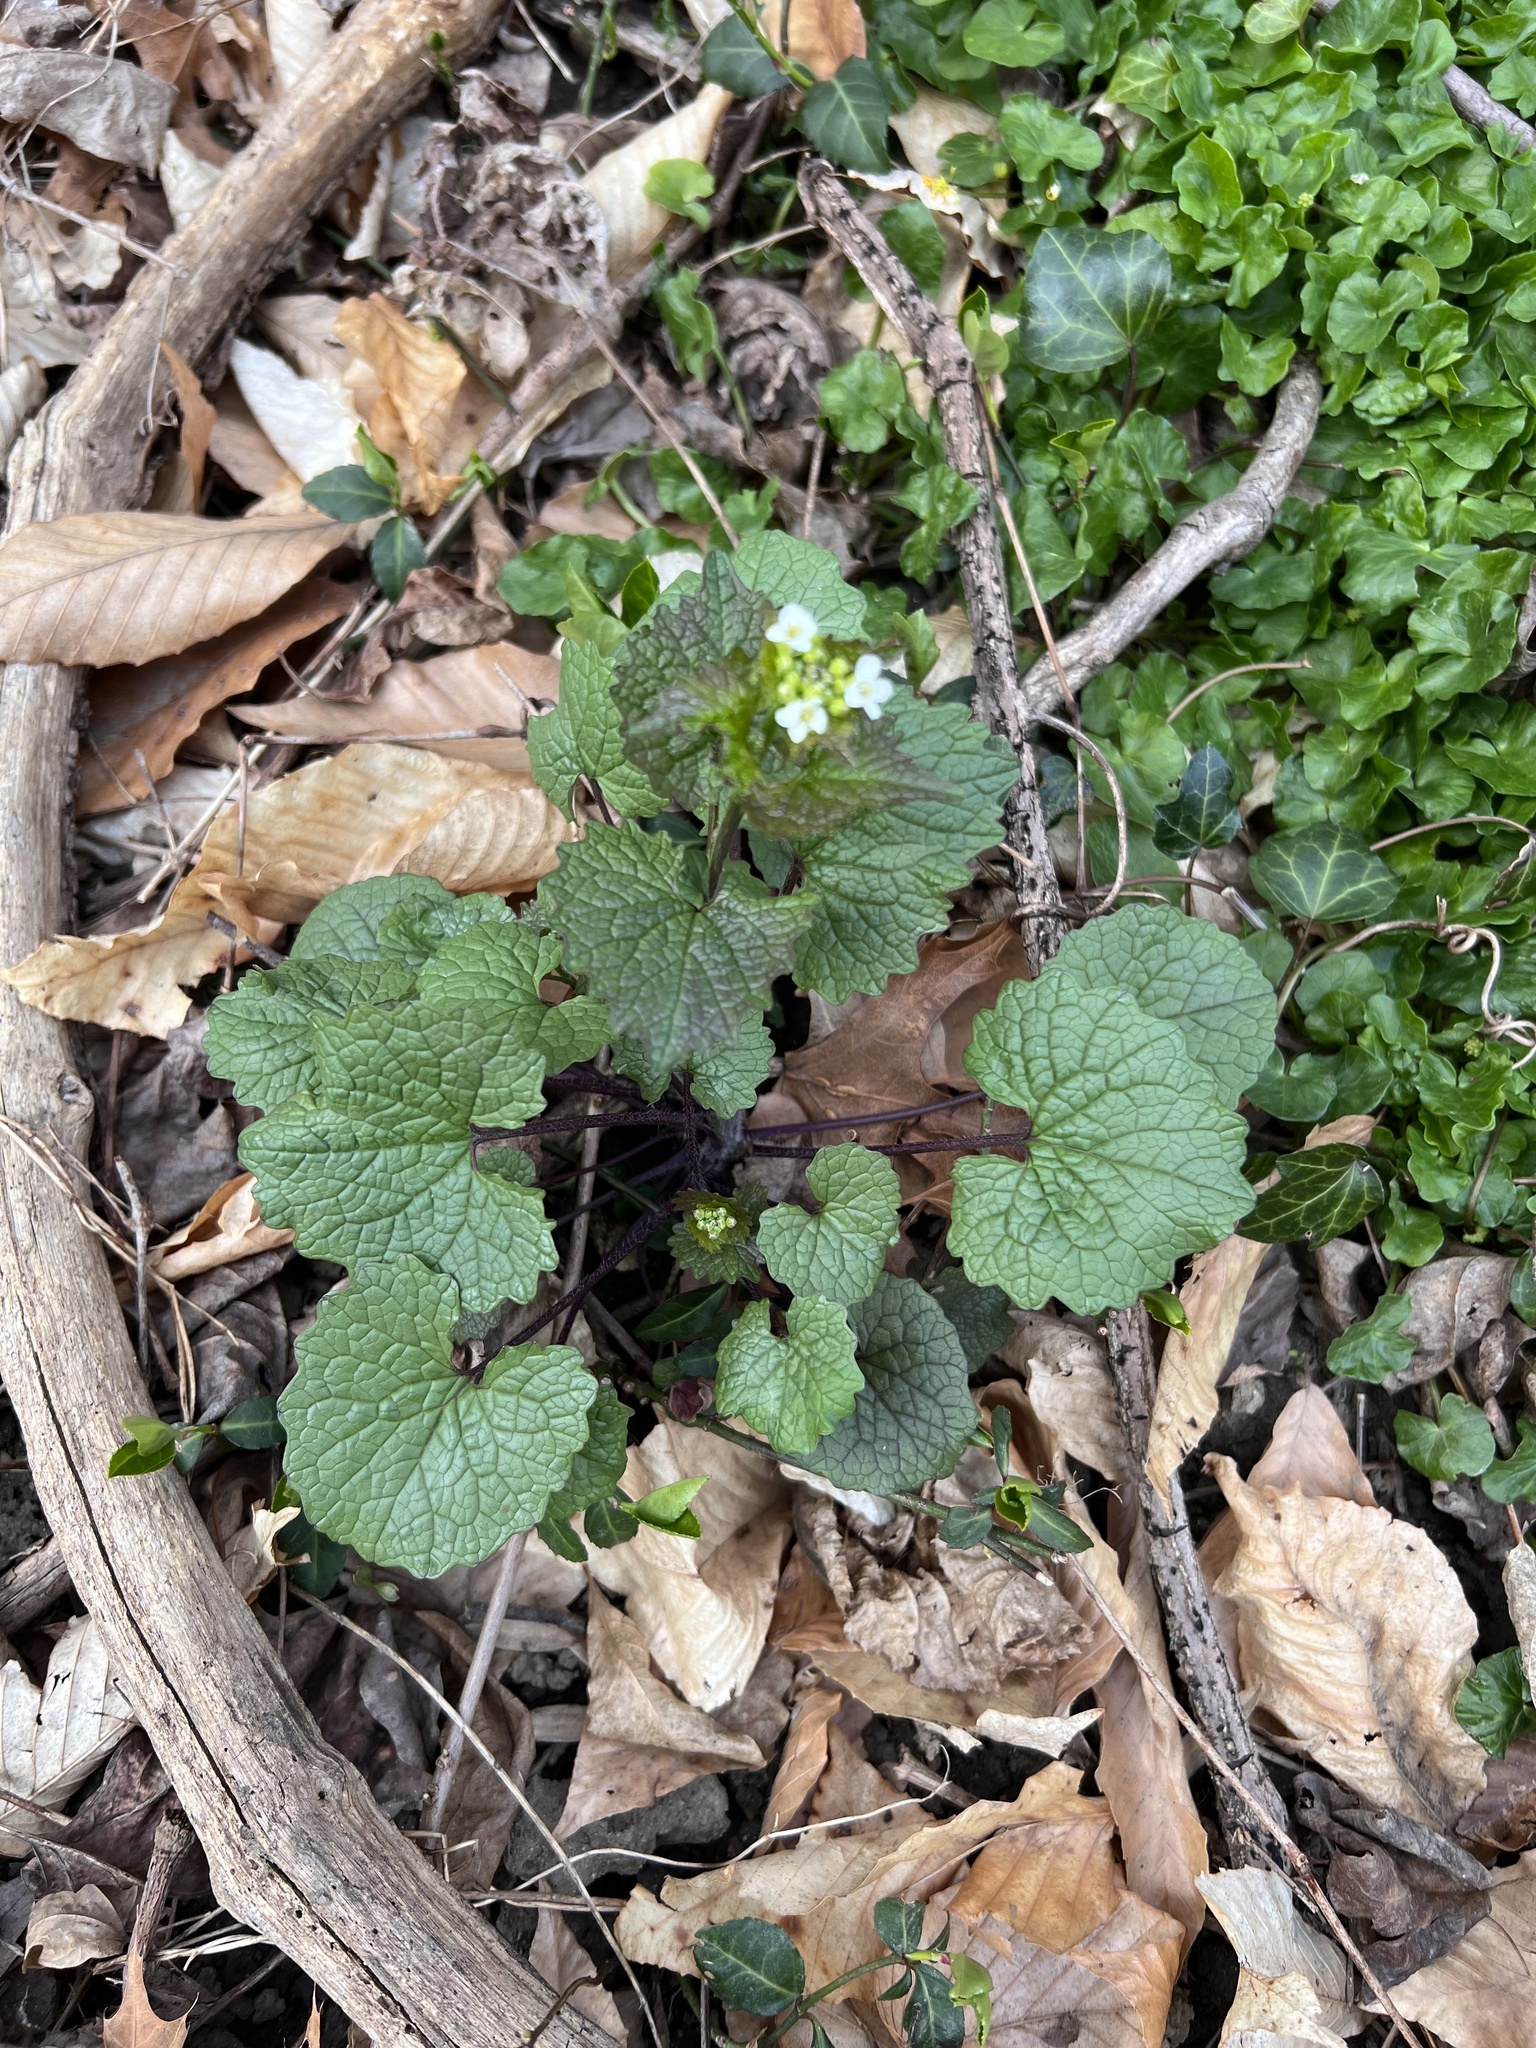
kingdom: Plantae
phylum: Tracheophyta
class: Magnoliopsida
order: Brassicales
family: Brassicaceae
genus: Alliaria
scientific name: Alliaria petiolata
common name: Garlic mustard
